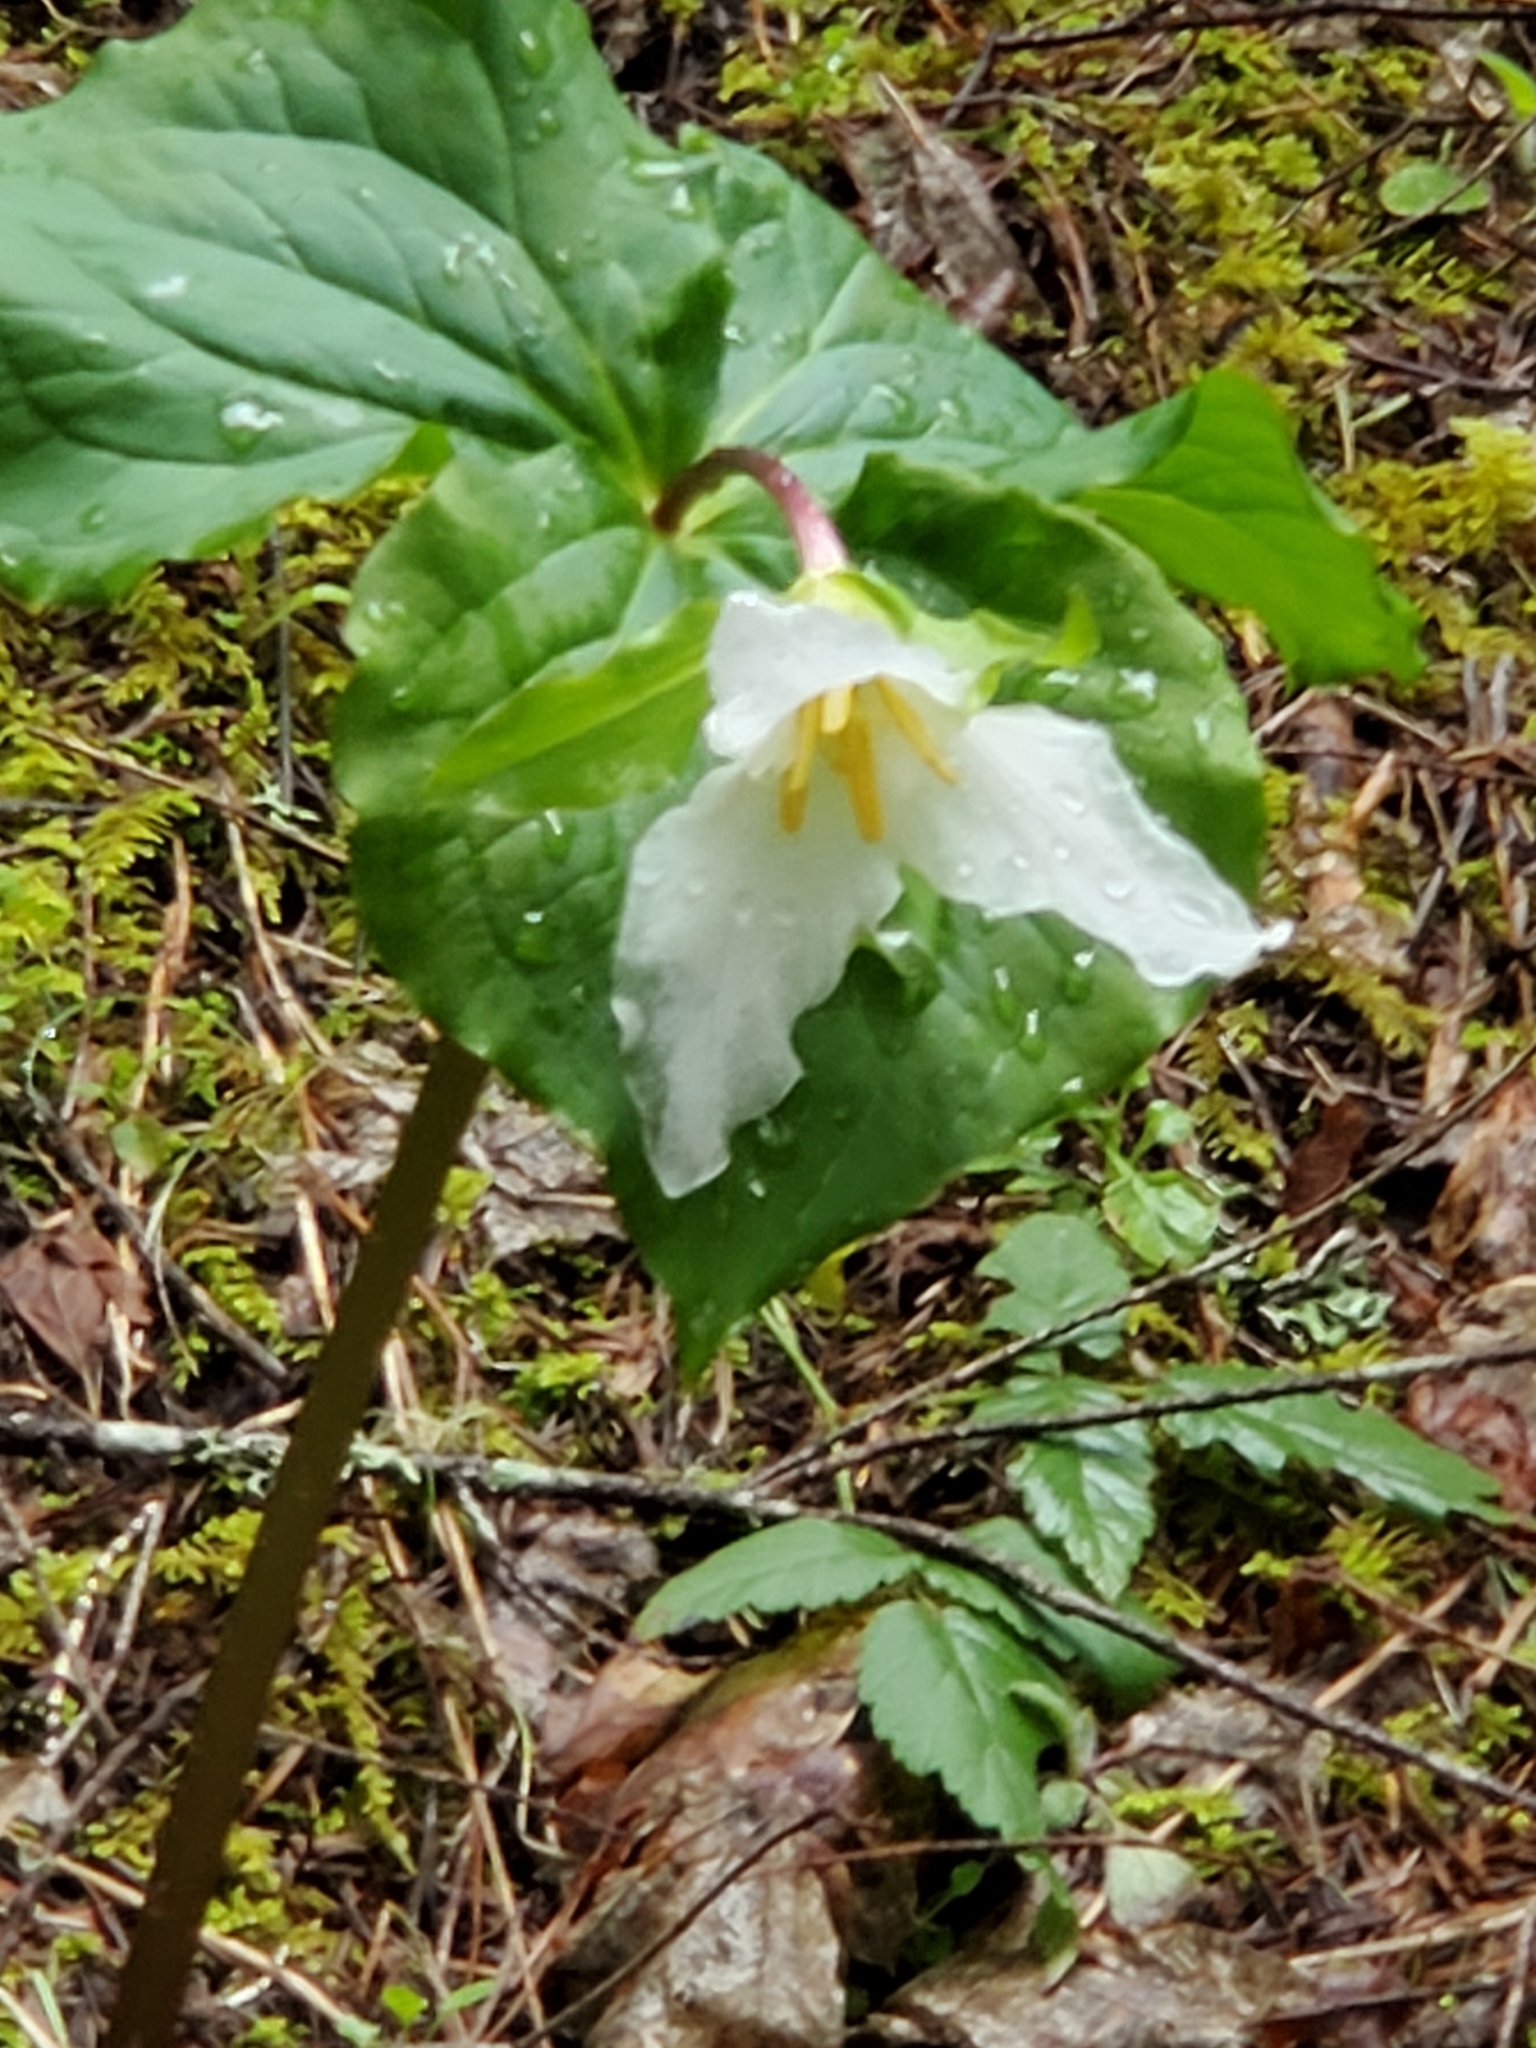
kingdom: Plantae
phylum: Tracheophyta
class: Liliopsida
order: Liliales
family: Melanthiaceae
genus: Trillium
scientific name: Trillium ovatum
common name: Pacific trillium
